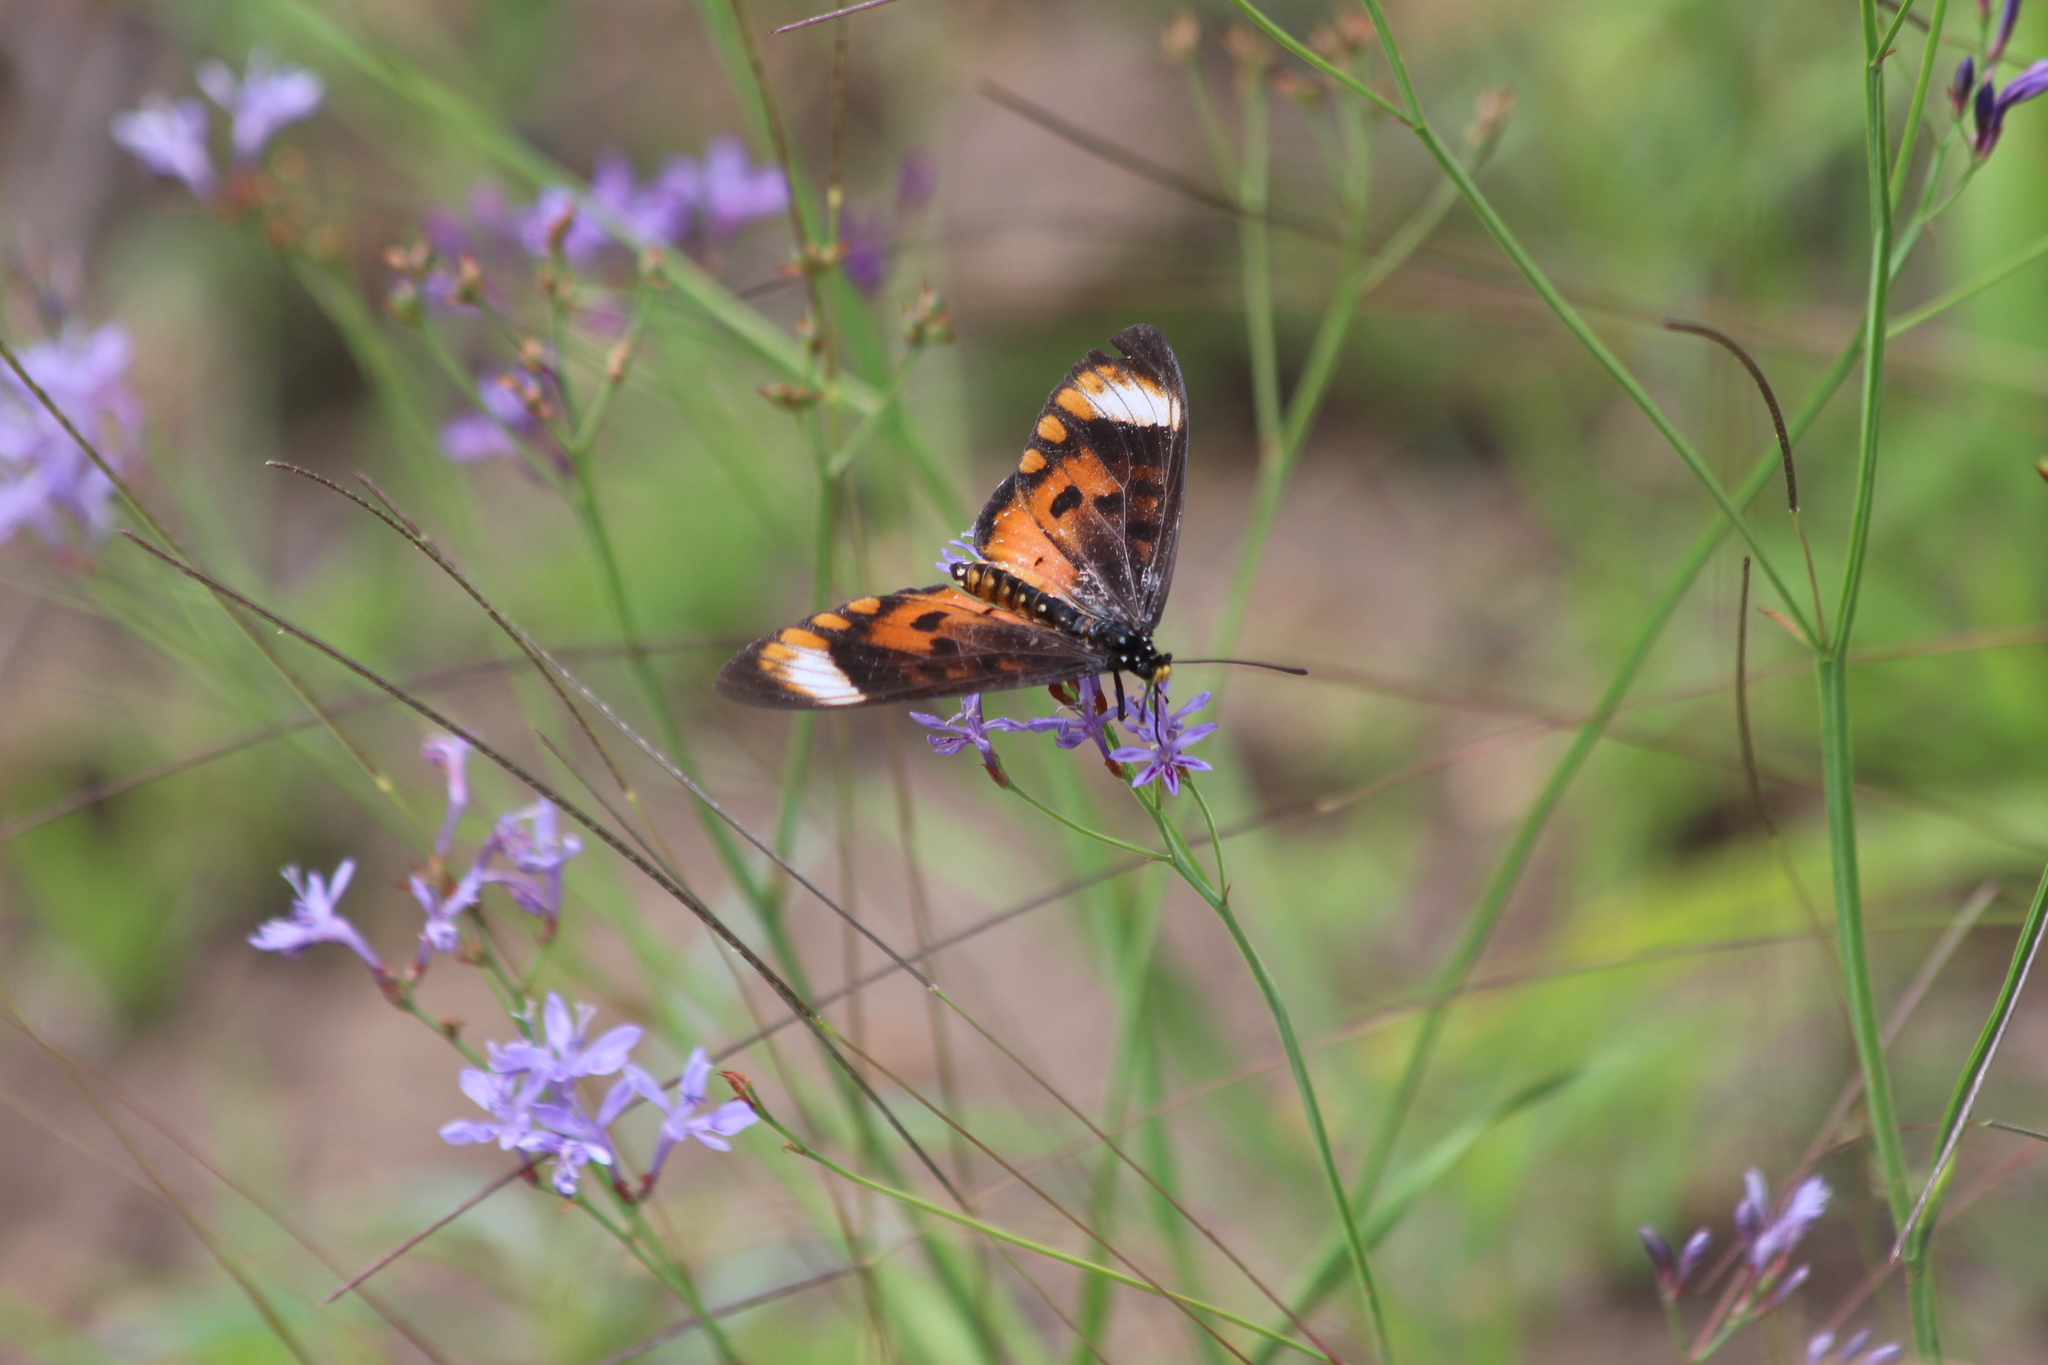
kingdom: Animalia
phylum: Arthropoda
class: Insecta
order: Lepidoptera
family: Nymphalidae
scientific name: Nymphalidae
